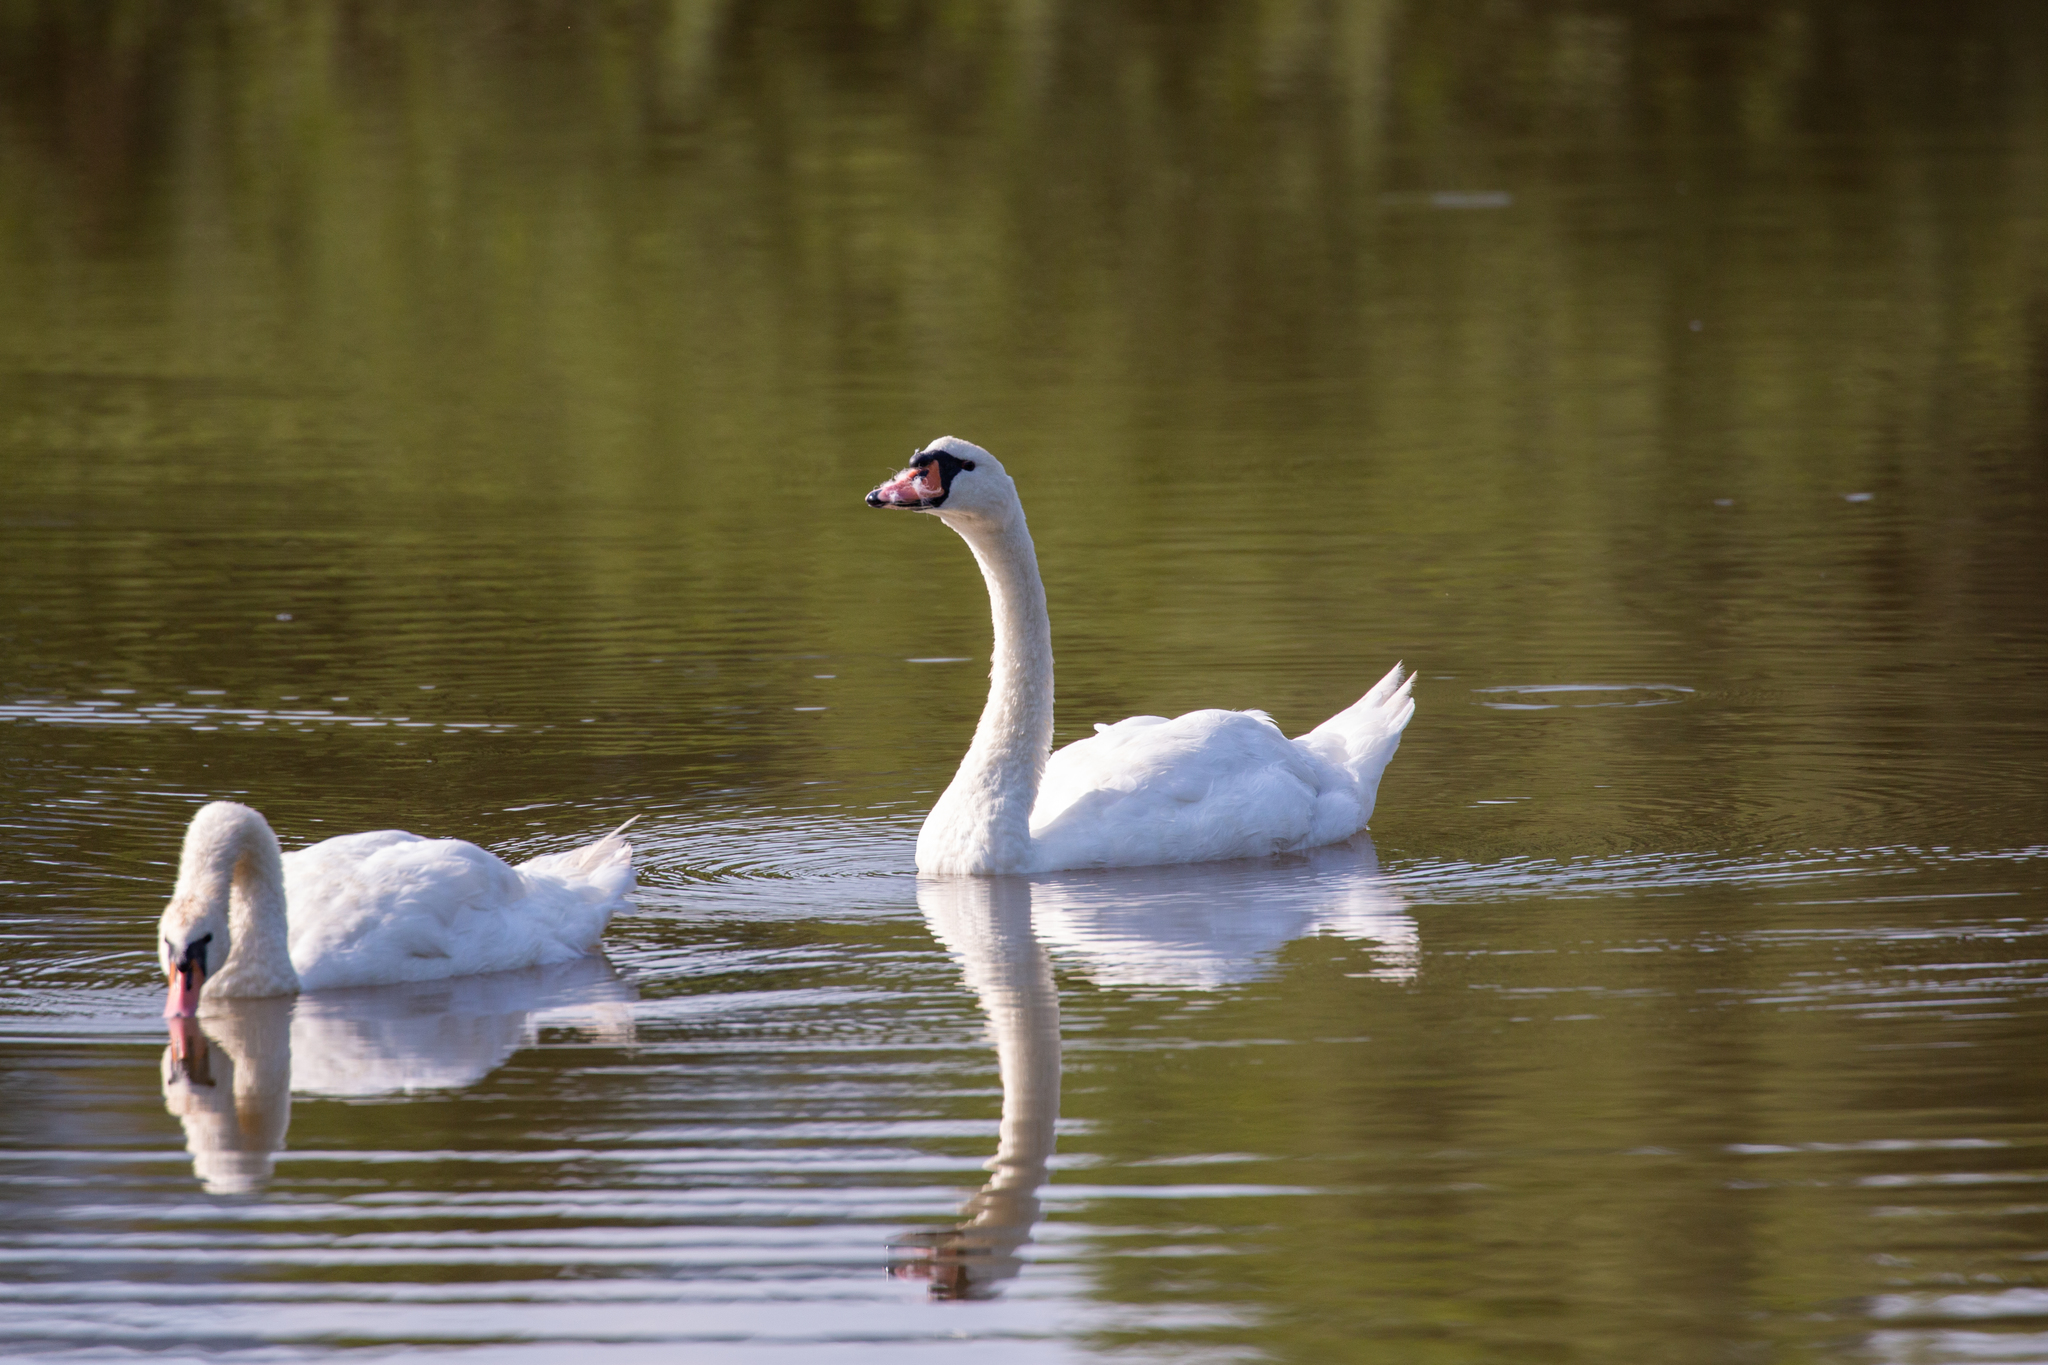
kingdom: Animalia
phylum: Chordata
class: Aves
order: Anseriformes
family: Anatidae
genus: Cygnus
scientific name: Cygnus olor
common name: Mute swan
